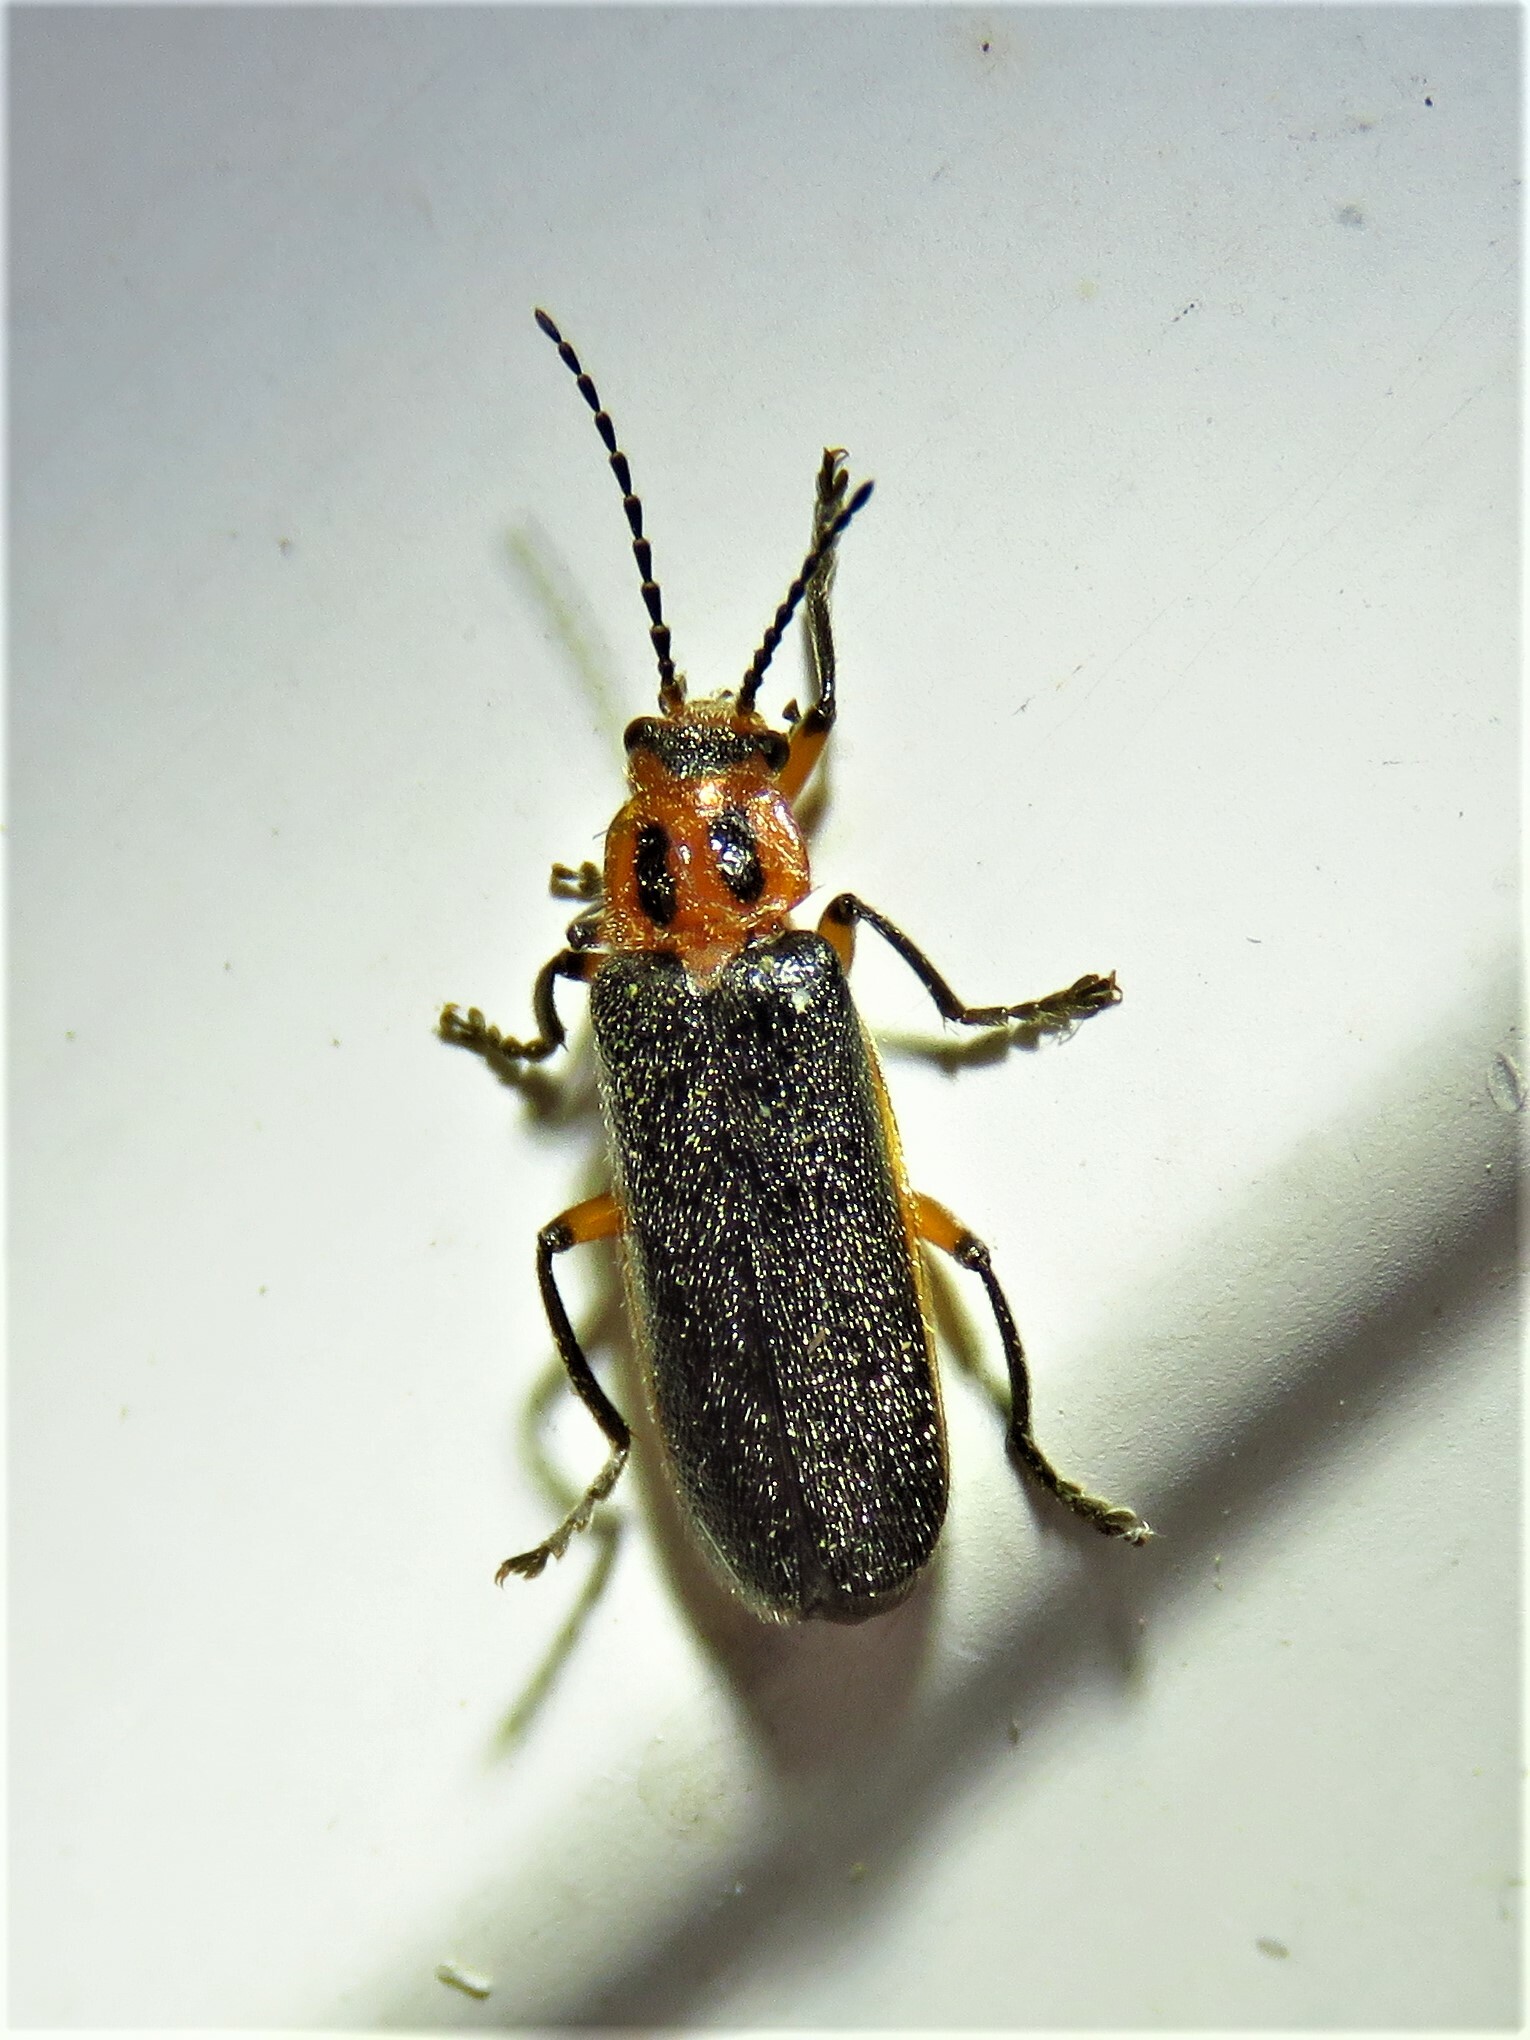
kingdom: Animalia
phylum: Arthropoda
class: Insecta
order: Coleoptera
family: Cantharidae
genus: Atalantycha
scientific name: Atalantycha bilineata
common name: Two-lined leatherwing
